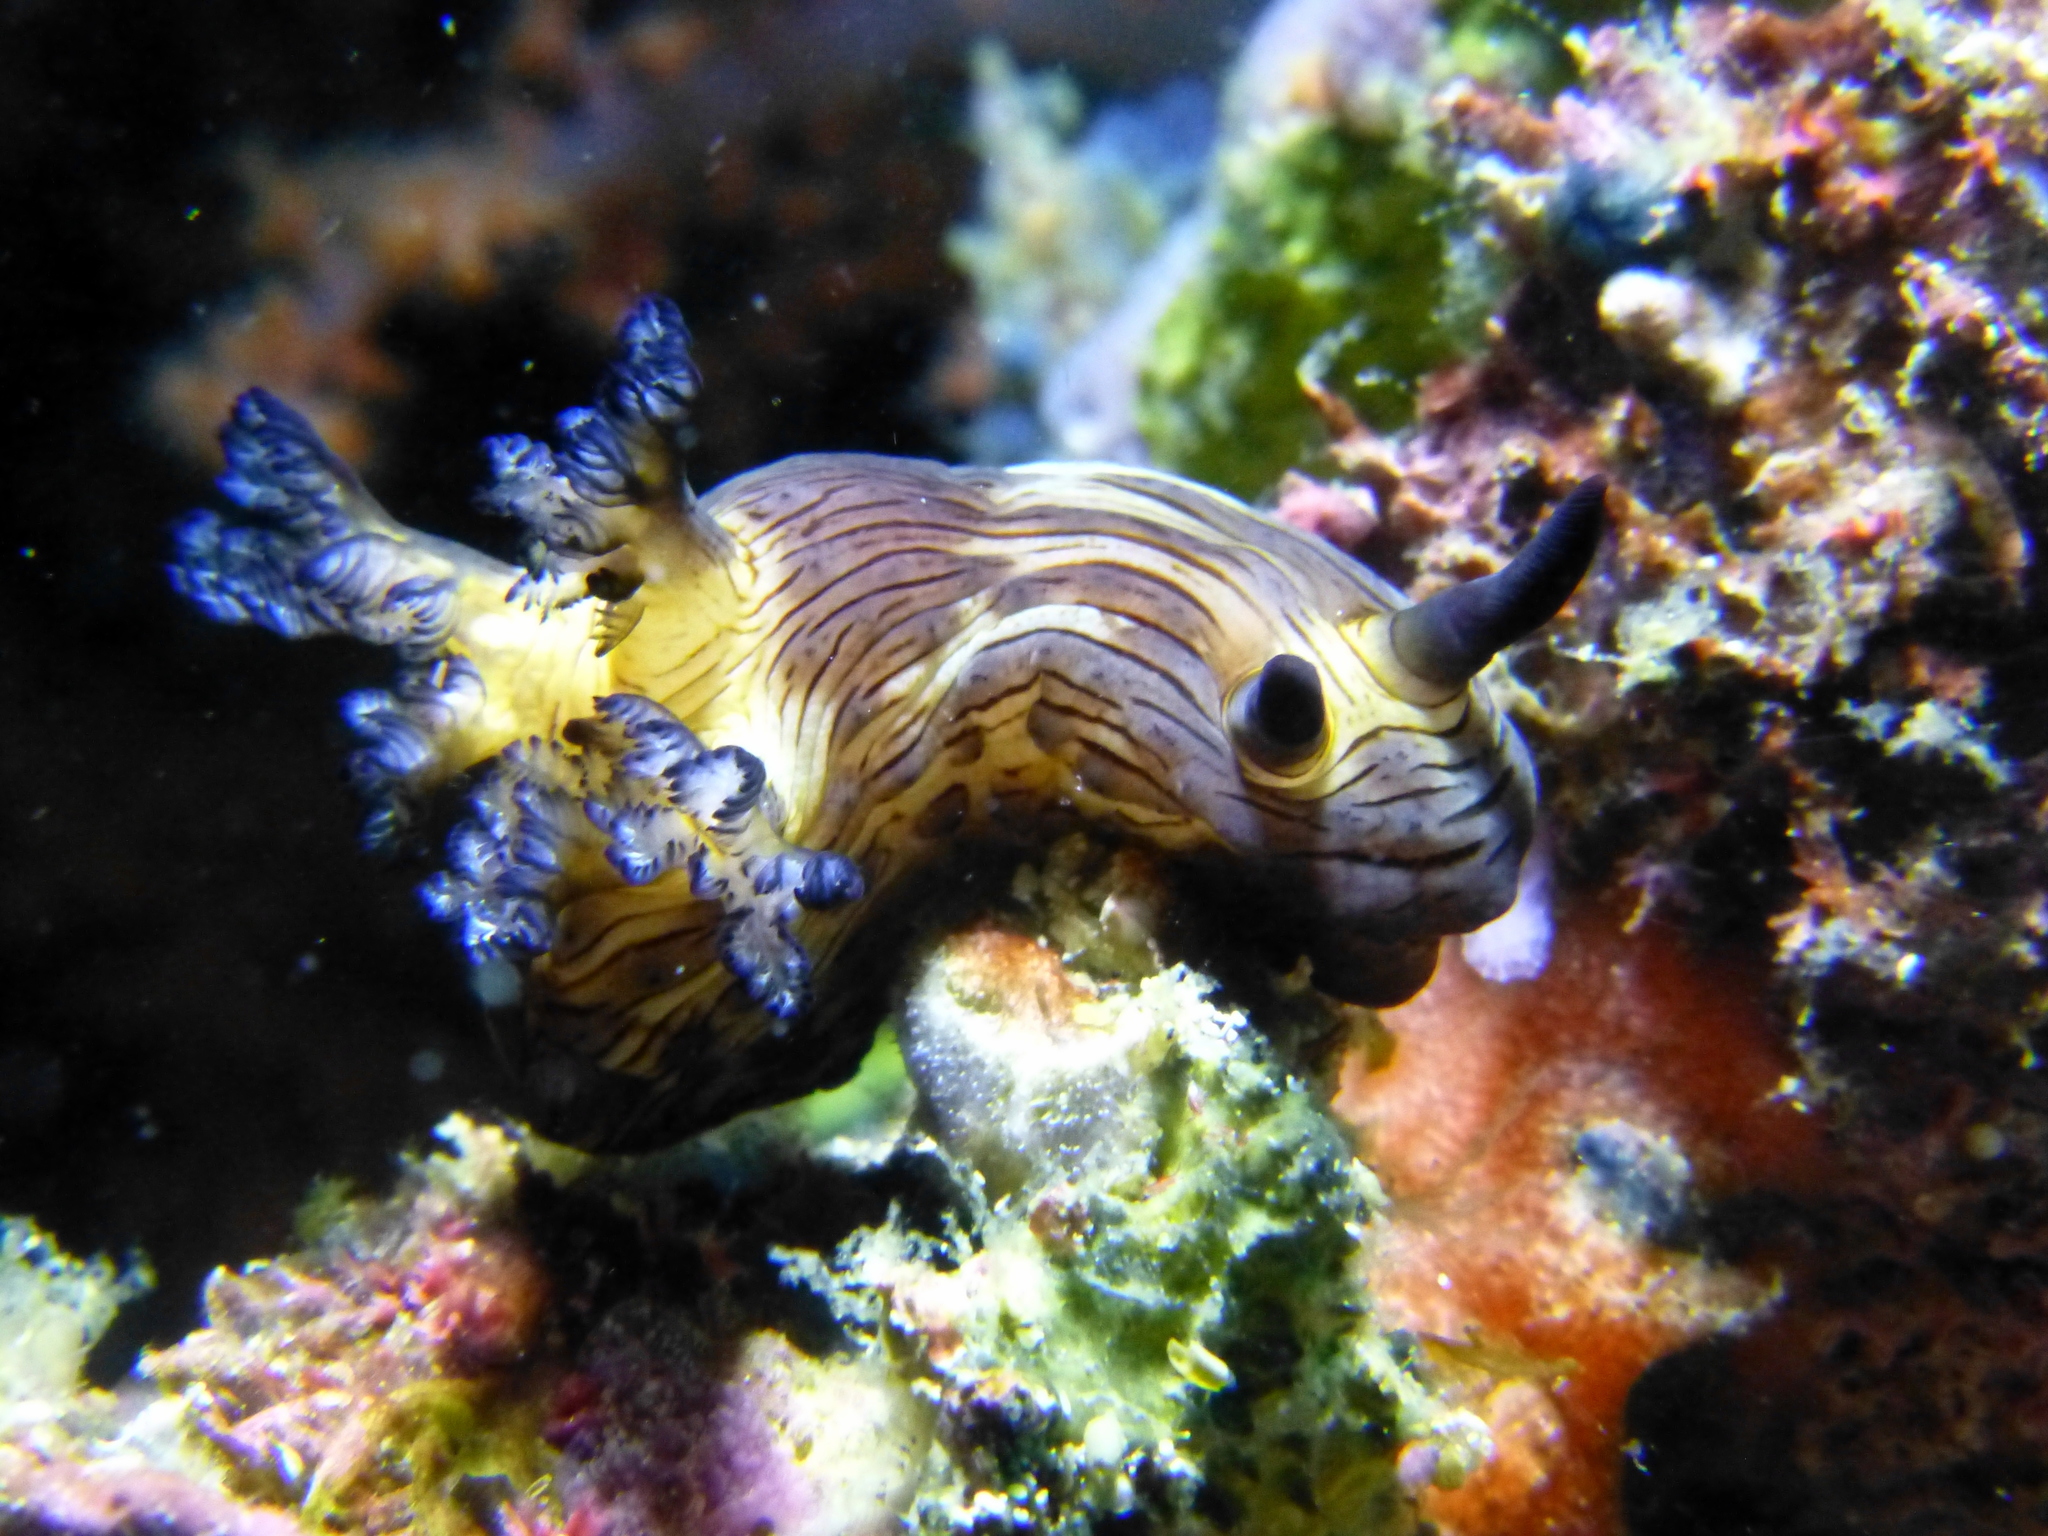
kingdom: Animalia
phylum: Mollusca
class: Gastropoda
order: Nudibranchia
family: Polyceridae
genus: Nembrotha
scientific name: Nembrotha mullineri
